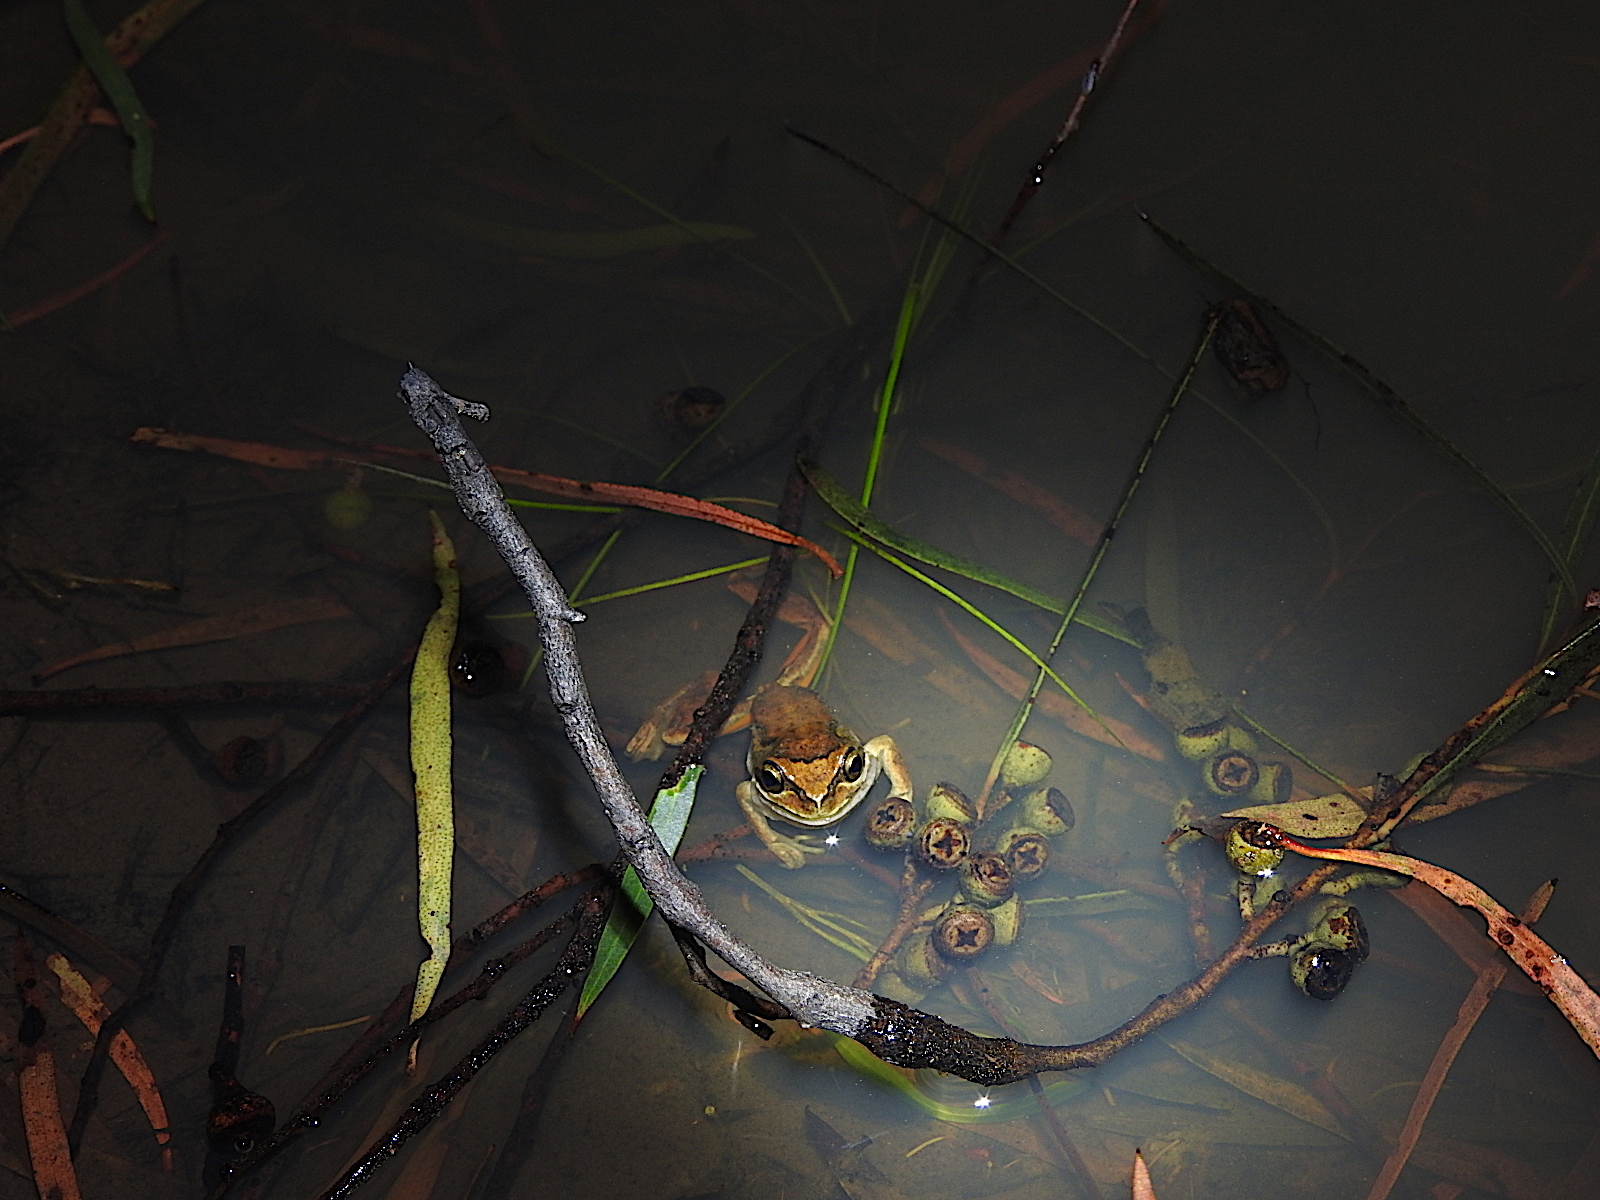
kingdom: Animalia
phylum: Chordata
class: Amphibia
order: Anura
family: Pelodryadidae
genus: Litoria
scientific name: Litoria ewingii
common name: Southern brown tree frog
